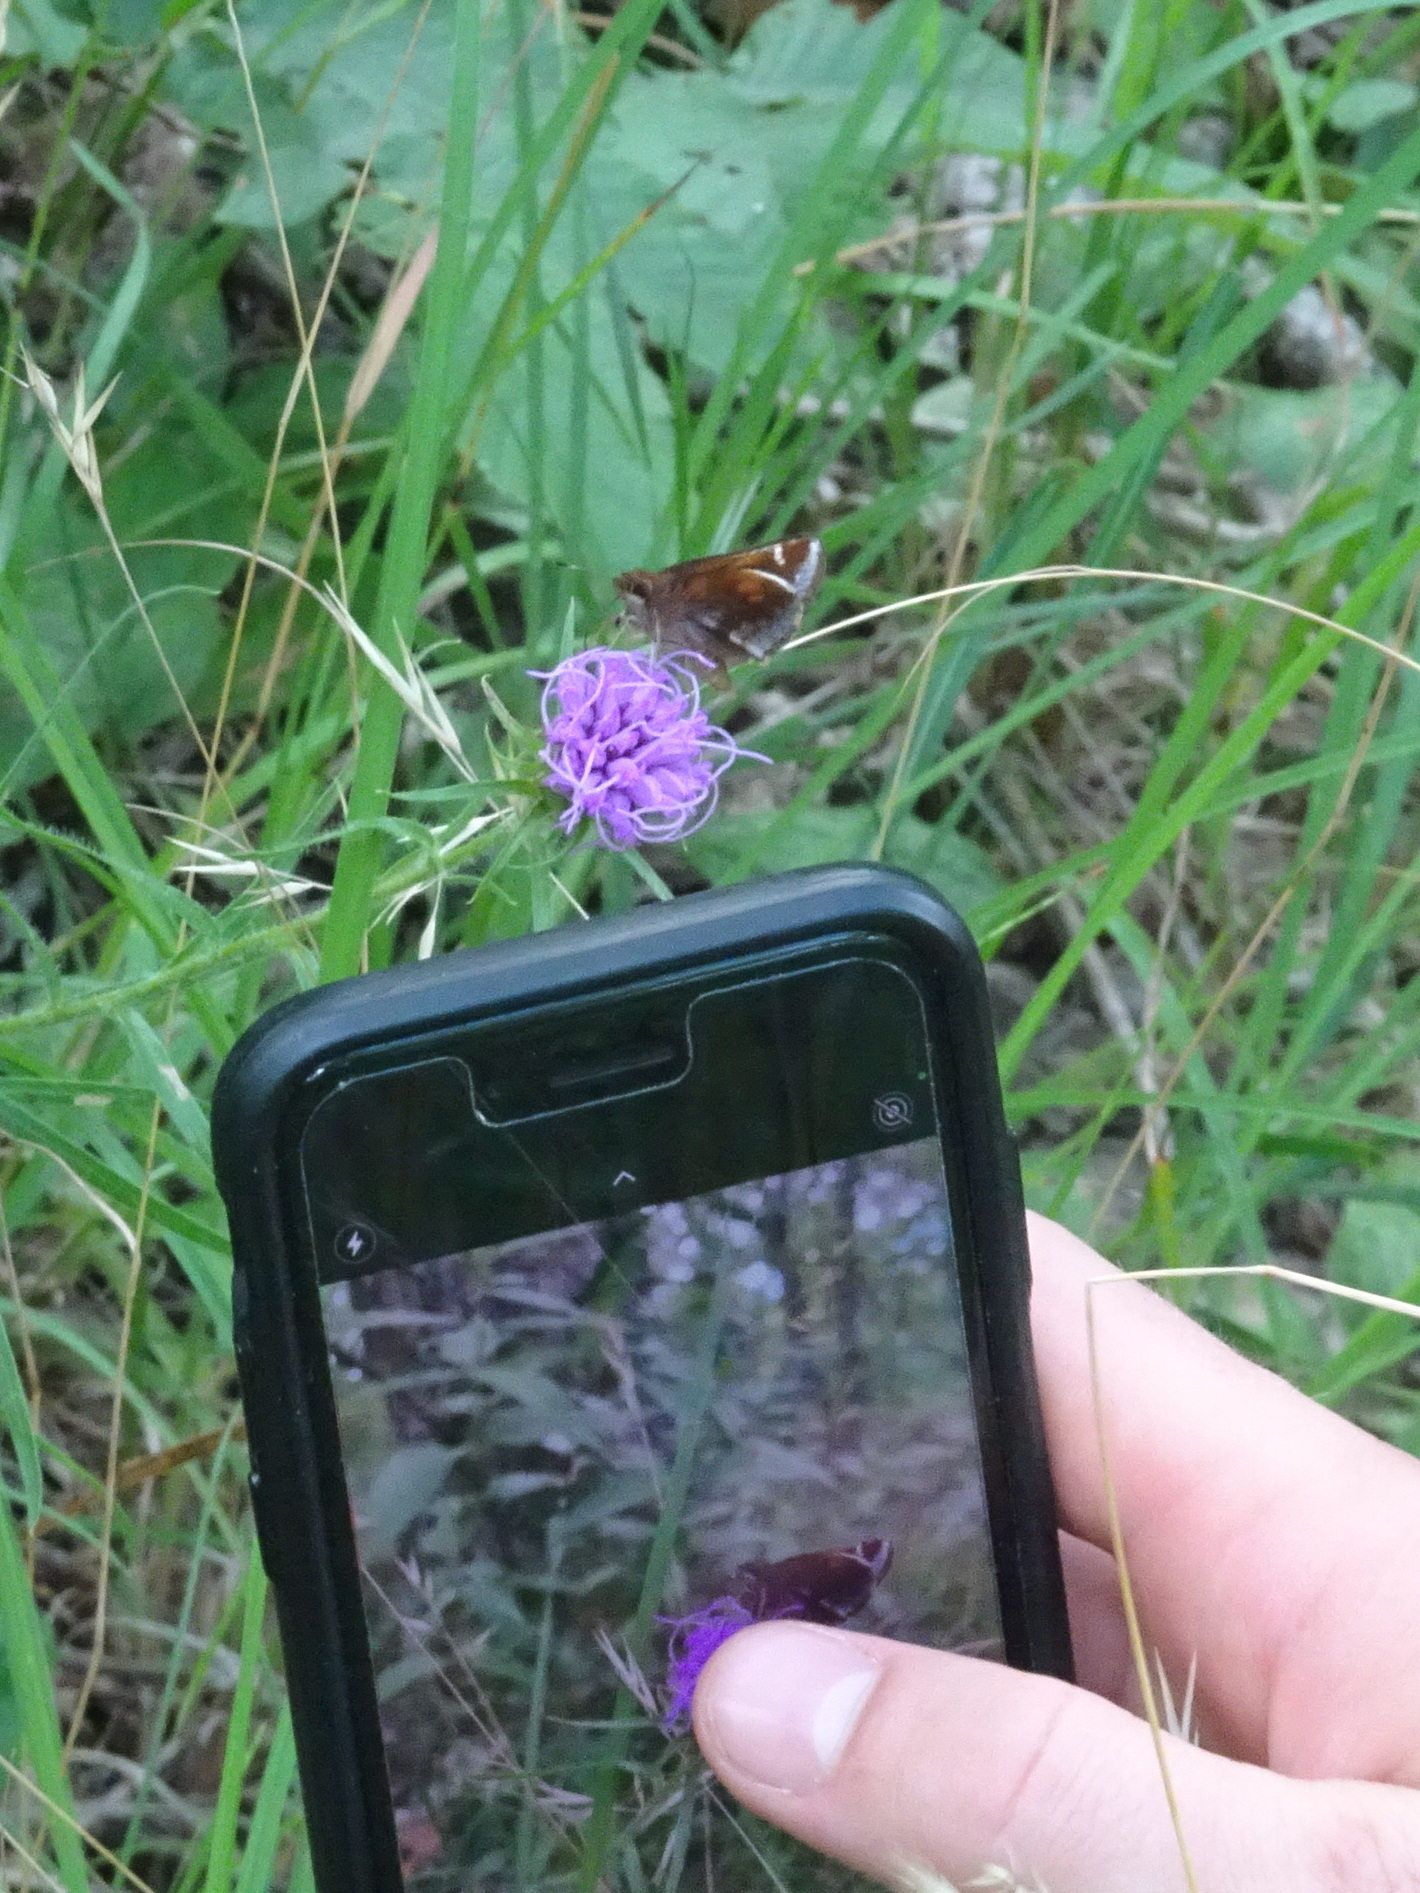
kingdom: Animalia
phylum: Arthropoda
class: Insecta
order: Lepidoptera
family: Hesperiidae
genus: Lon
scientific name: Lon zabulon
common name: Zabulon skipper
